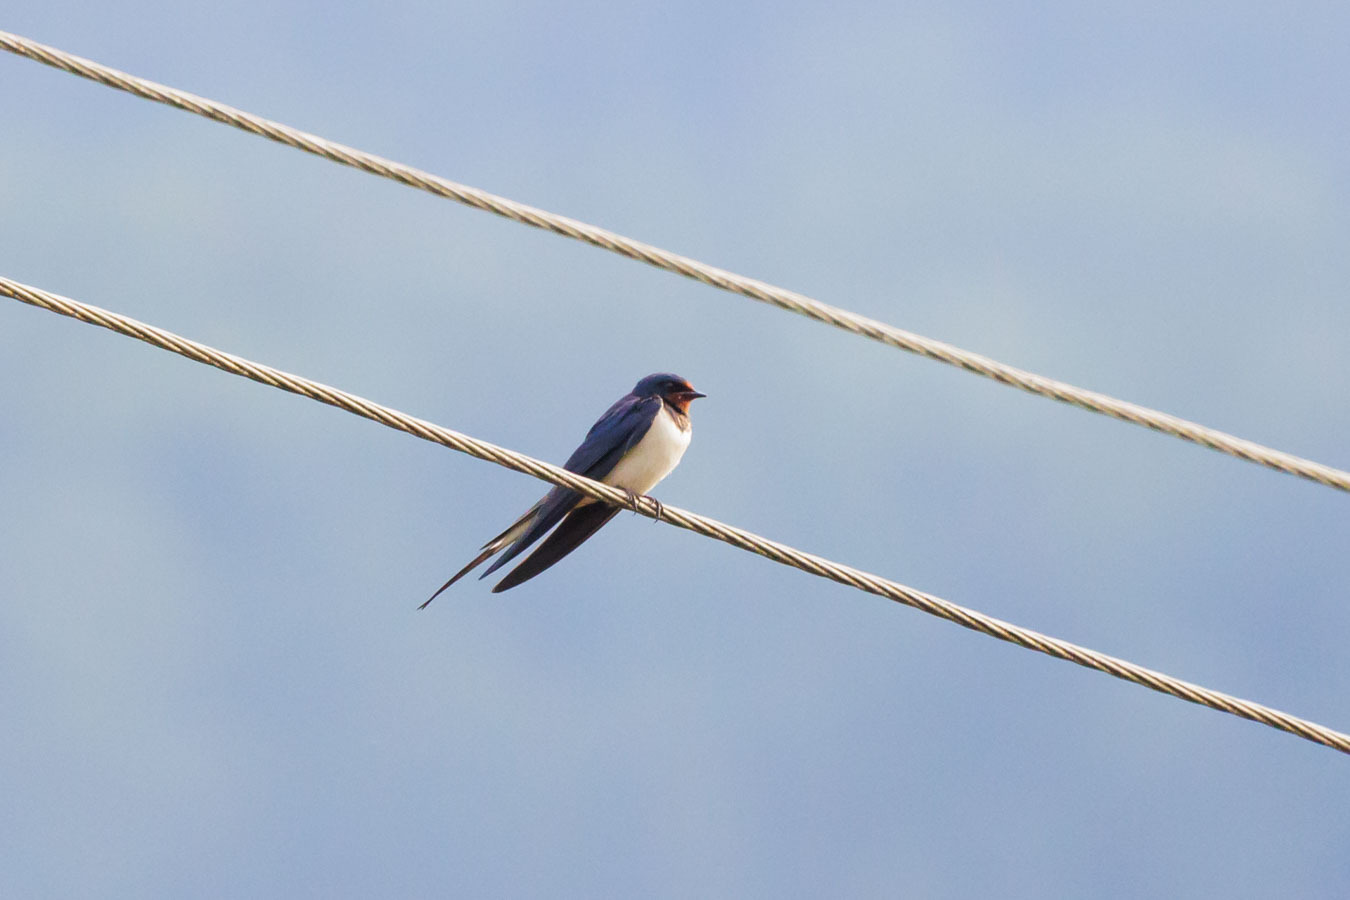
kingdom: Animalia
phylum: Chordata
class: Aves
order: Passeriformes
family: Hirundinidae
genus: Hirundo
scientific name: Hirundo rustica
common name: Barn swallow
